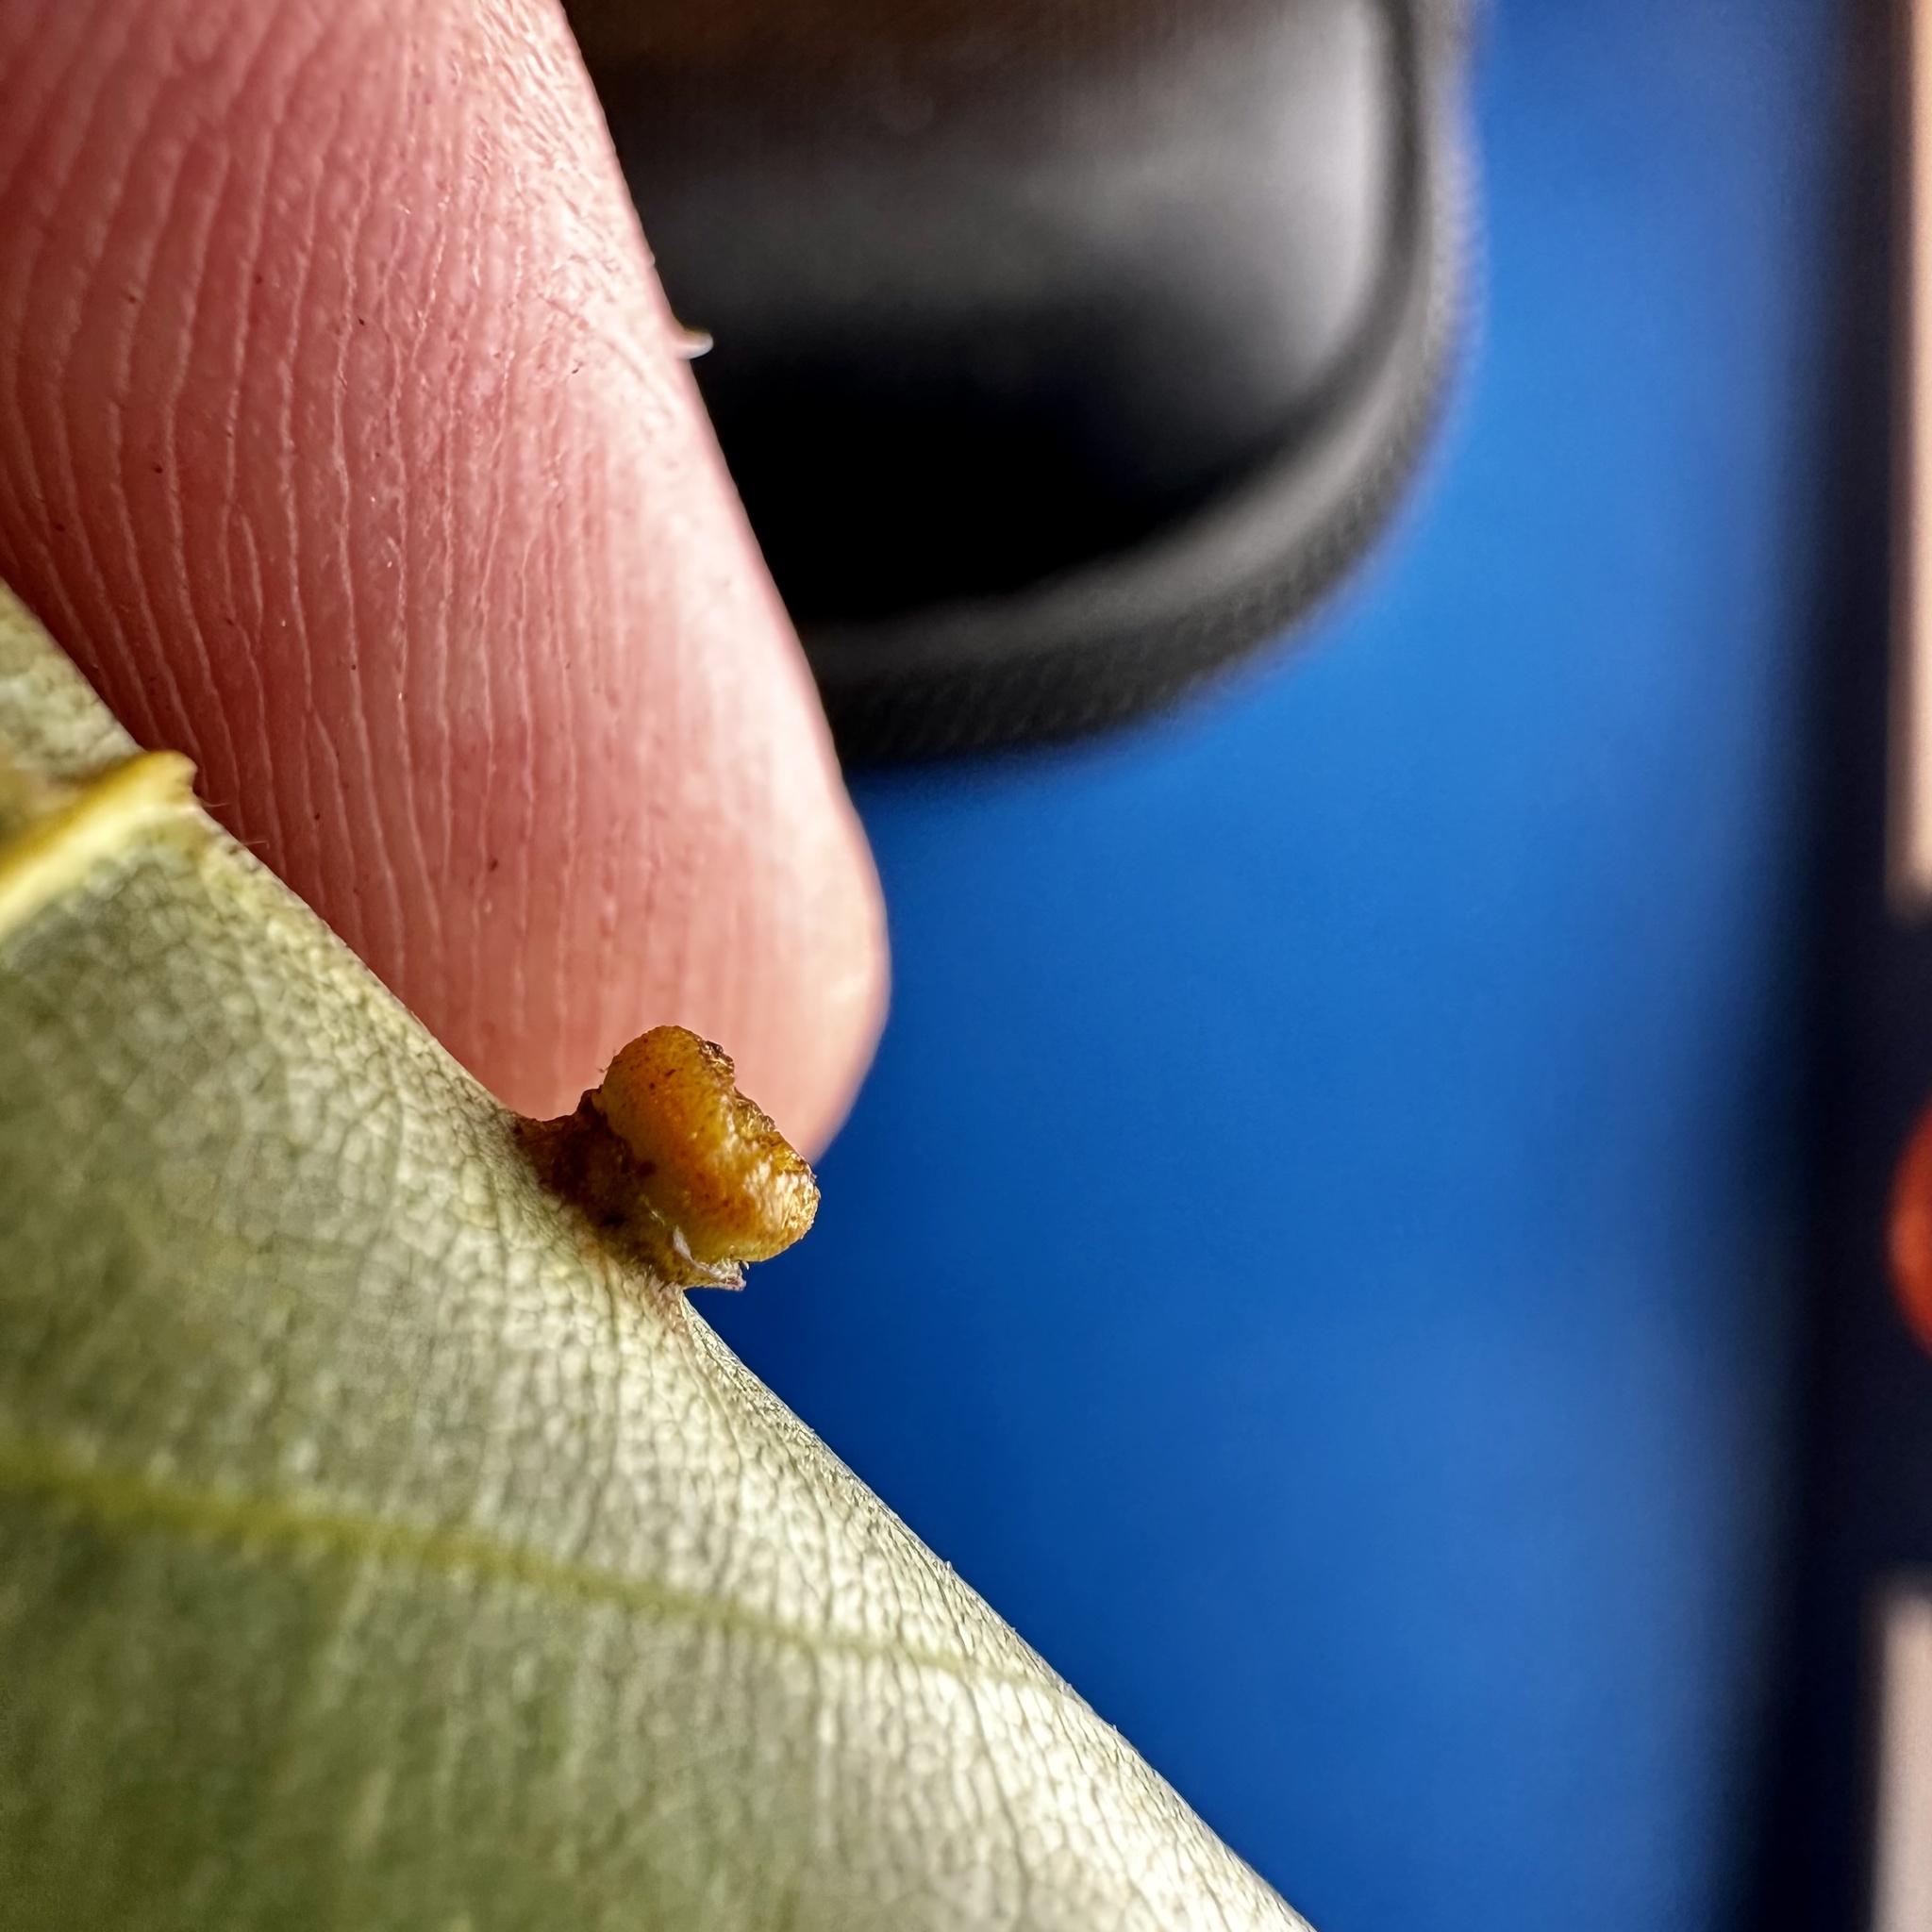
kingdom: Animalia
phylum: Arthropoda
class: Insecta
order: Diptera
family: Cecidomyiidae
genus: Caryomyia
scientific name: Caryomyia melicrustum
